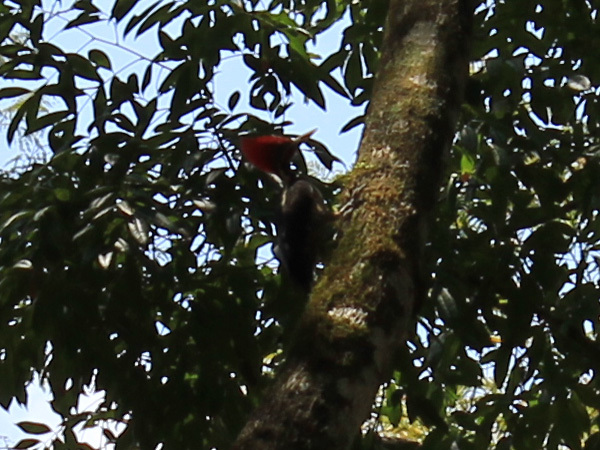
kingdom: Animalia
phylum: Chordata
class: Aves
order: Piciformes
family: Picidae
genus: Dryocopus
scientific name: Dryocopus lineatus
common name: Lineated woodpecker
